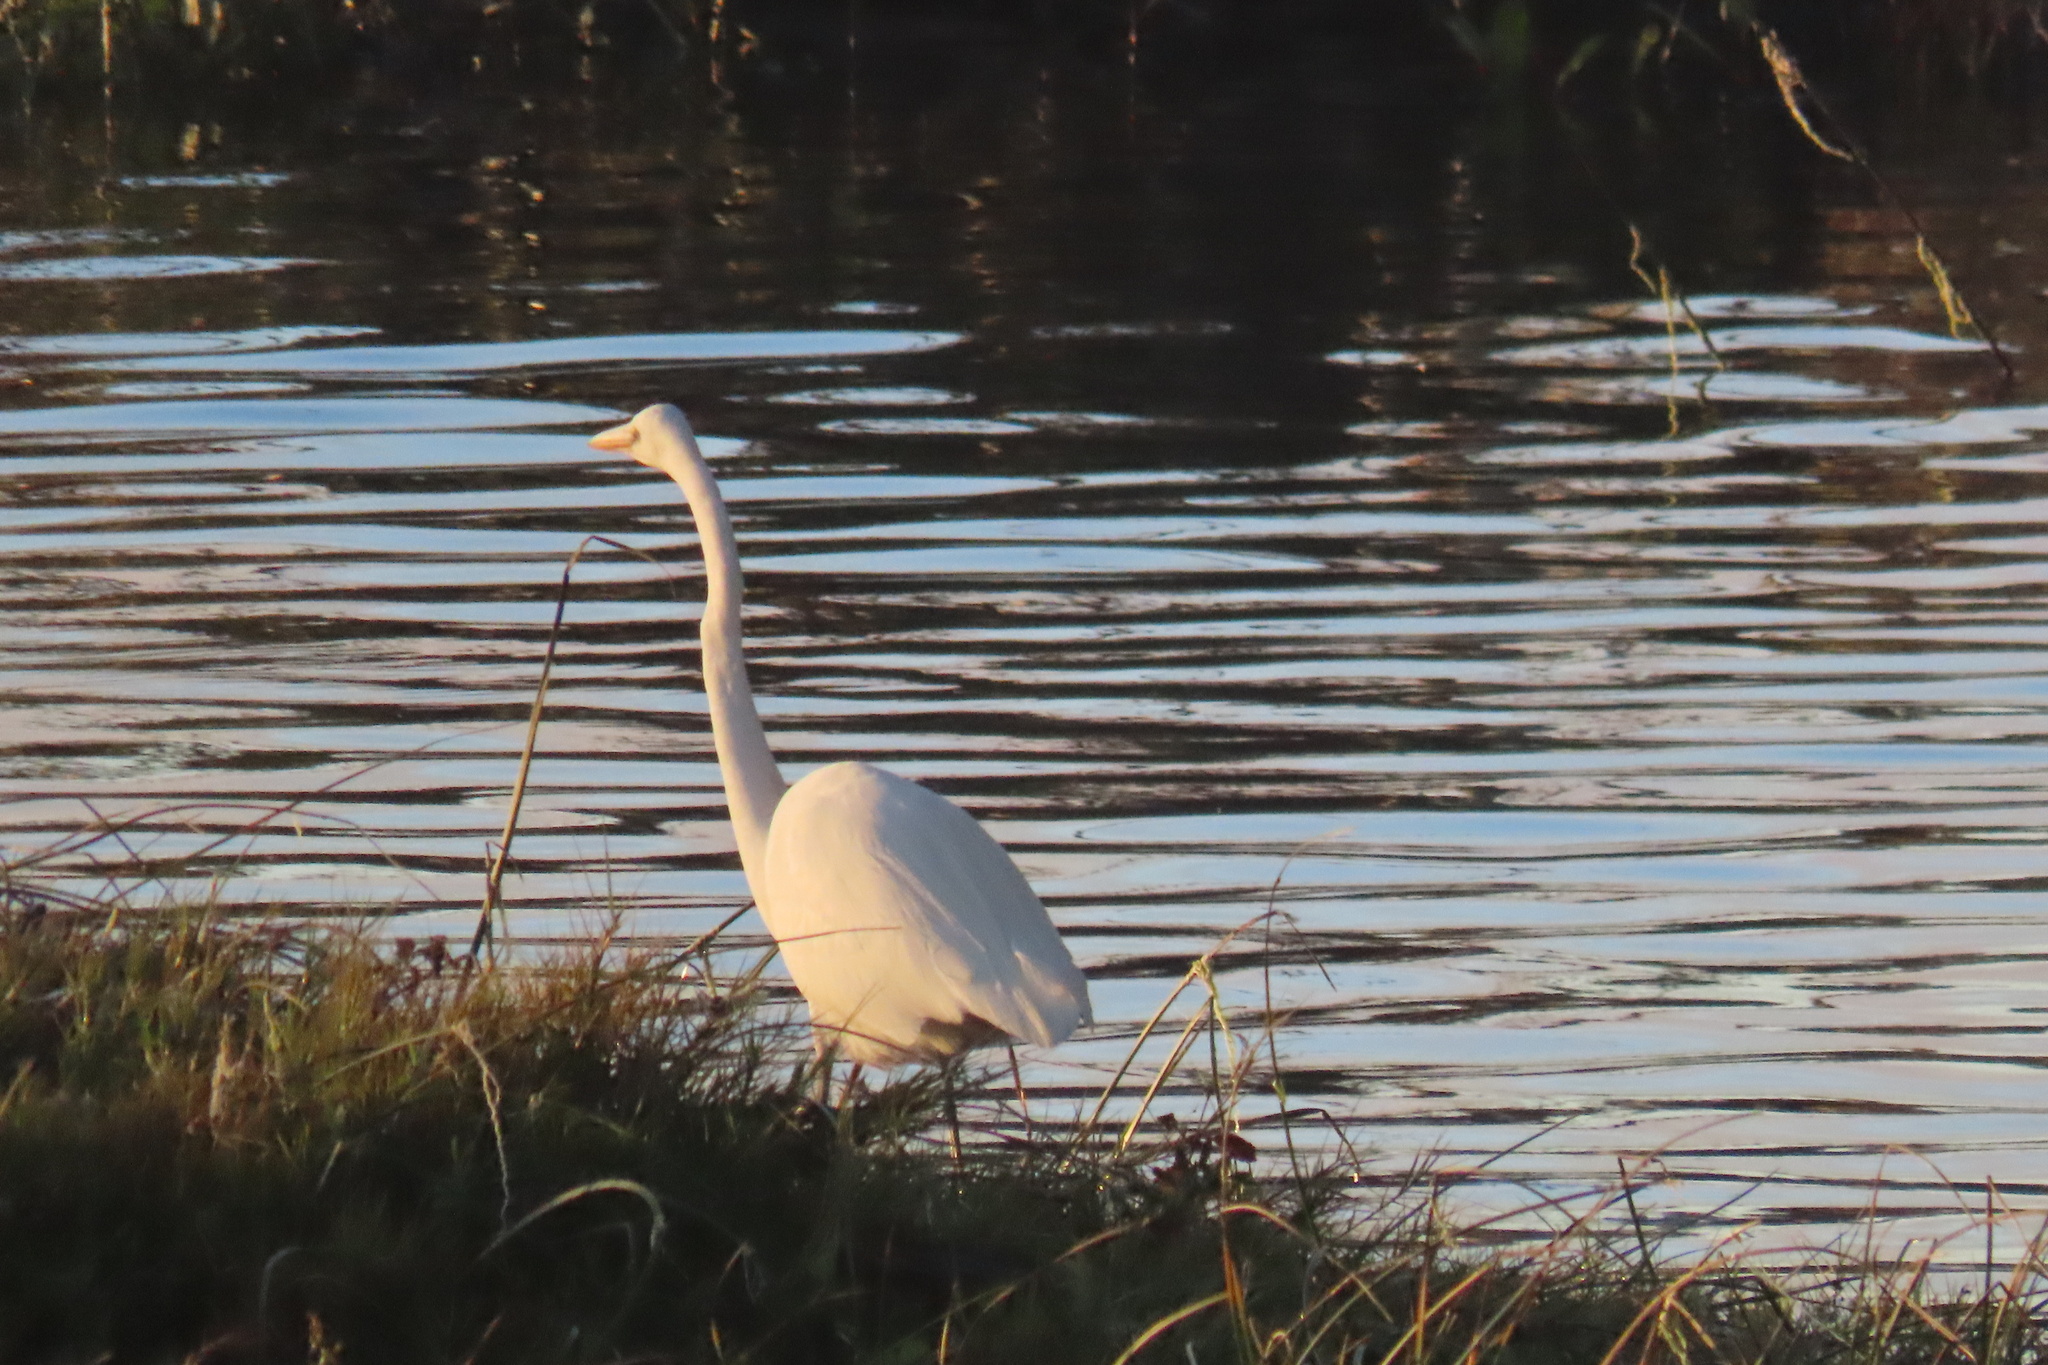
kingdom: Animalia
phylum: Chordata
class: Aves
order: Pelecaniformes
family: Ardeidae
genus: Ardea
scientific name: Ardea alba
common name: Great egret
